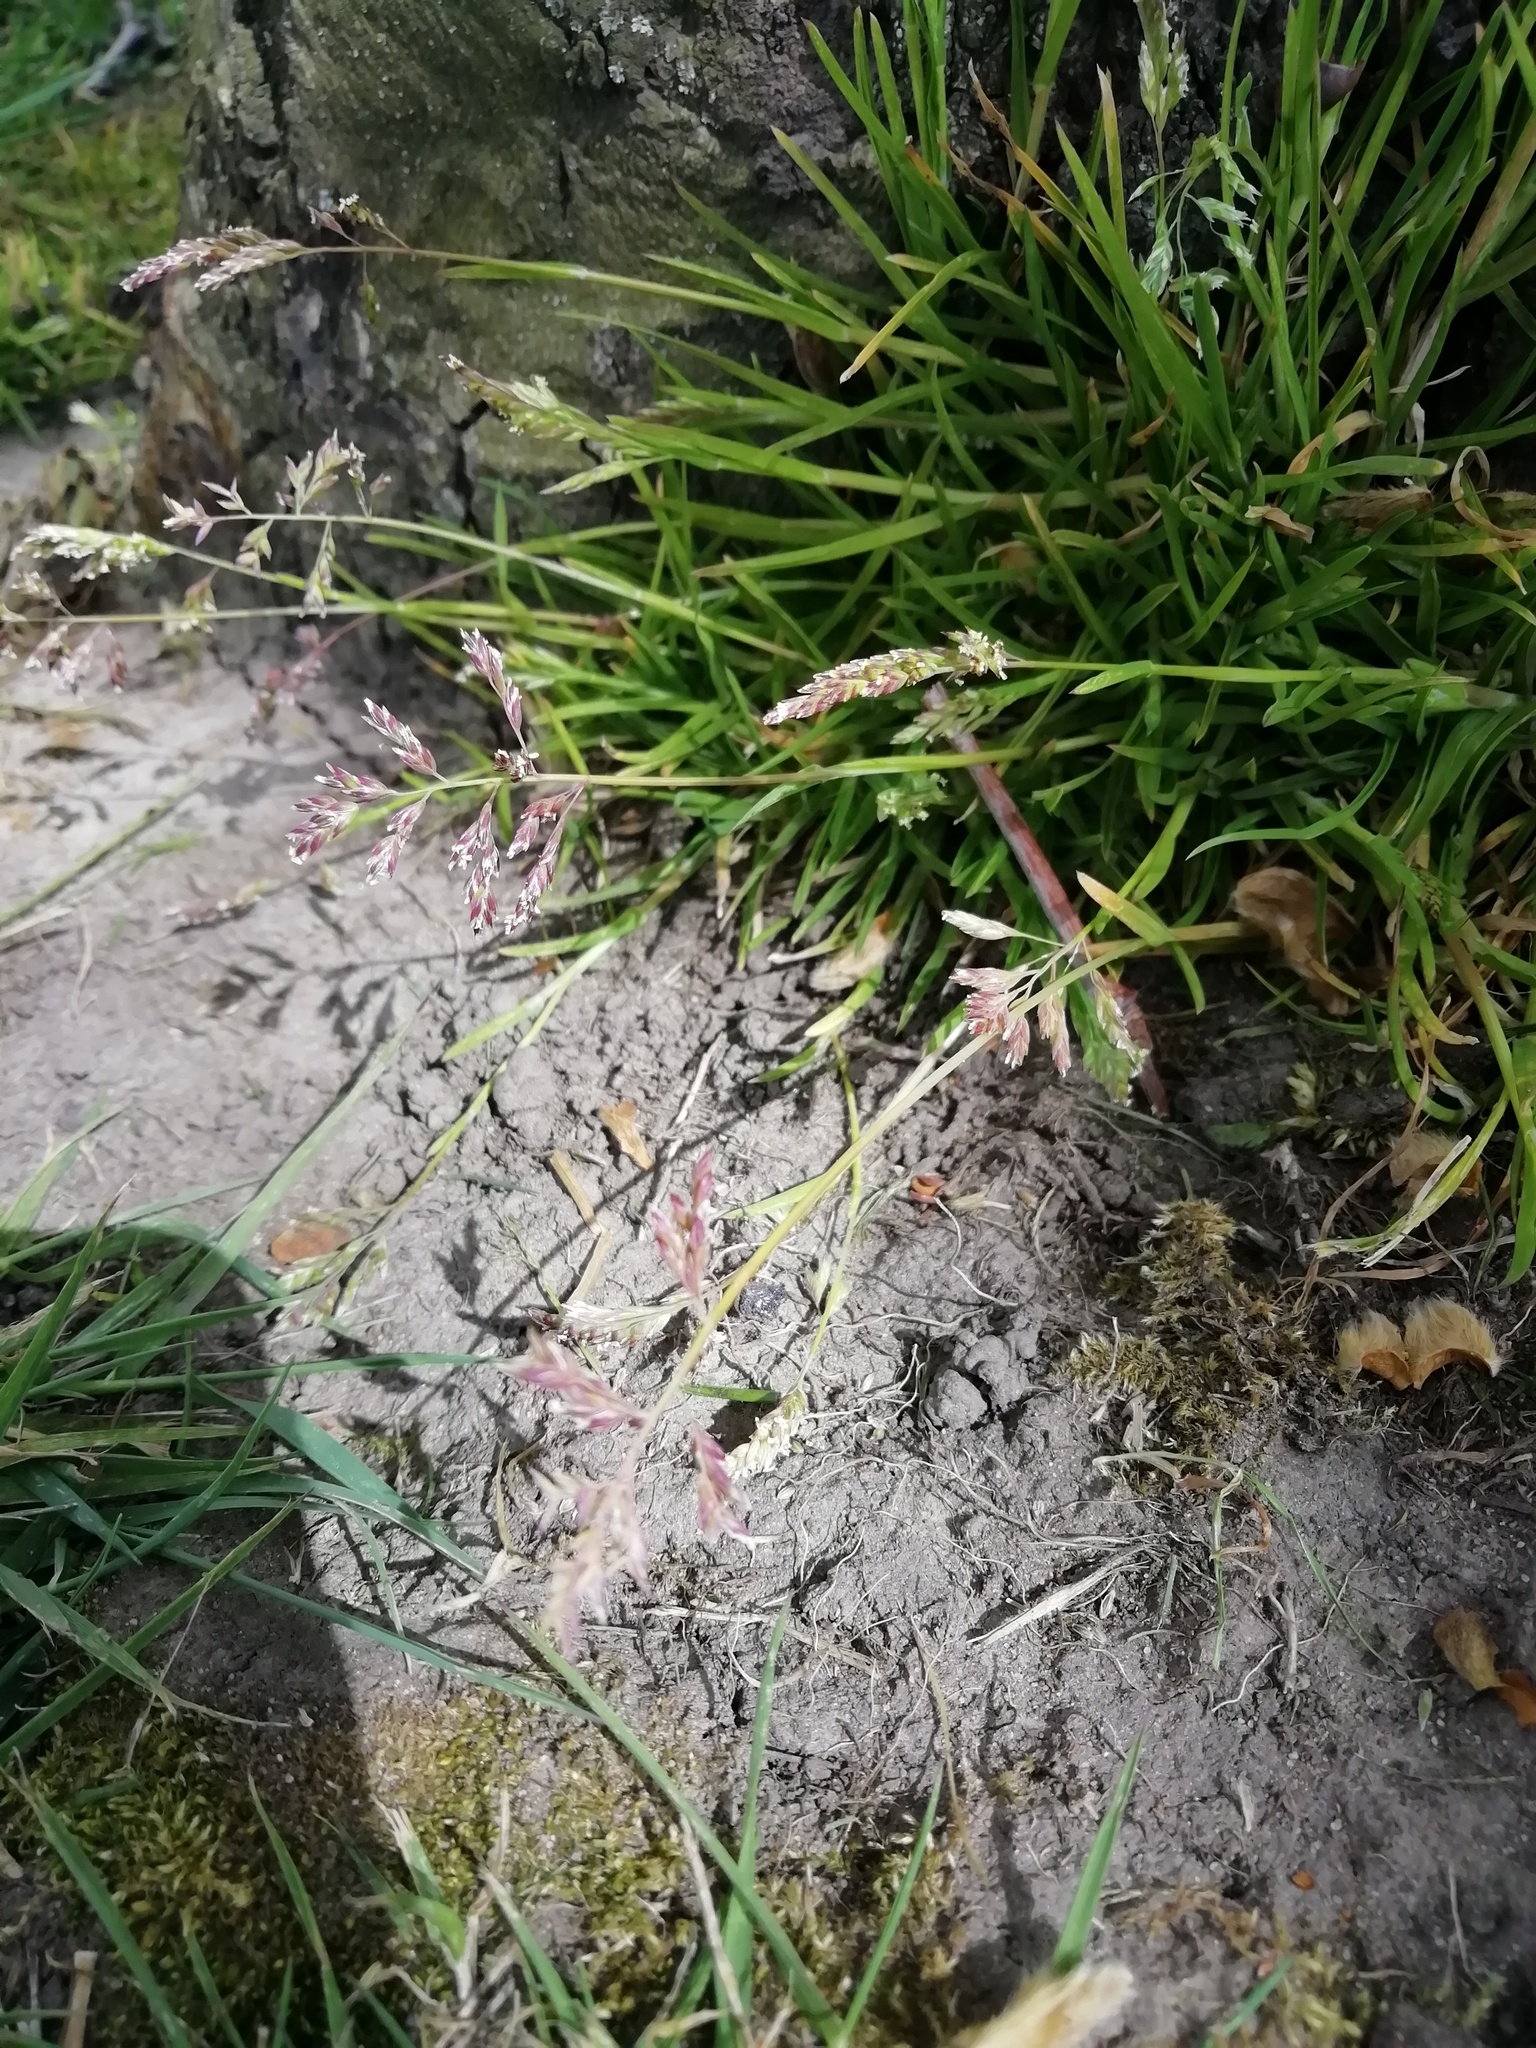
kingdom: Plantae
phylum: Tracheophyta
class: Liliopsida
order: Poales
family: Poaceae
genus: Poa
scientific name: Poa annua
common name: Annual bluegrass
